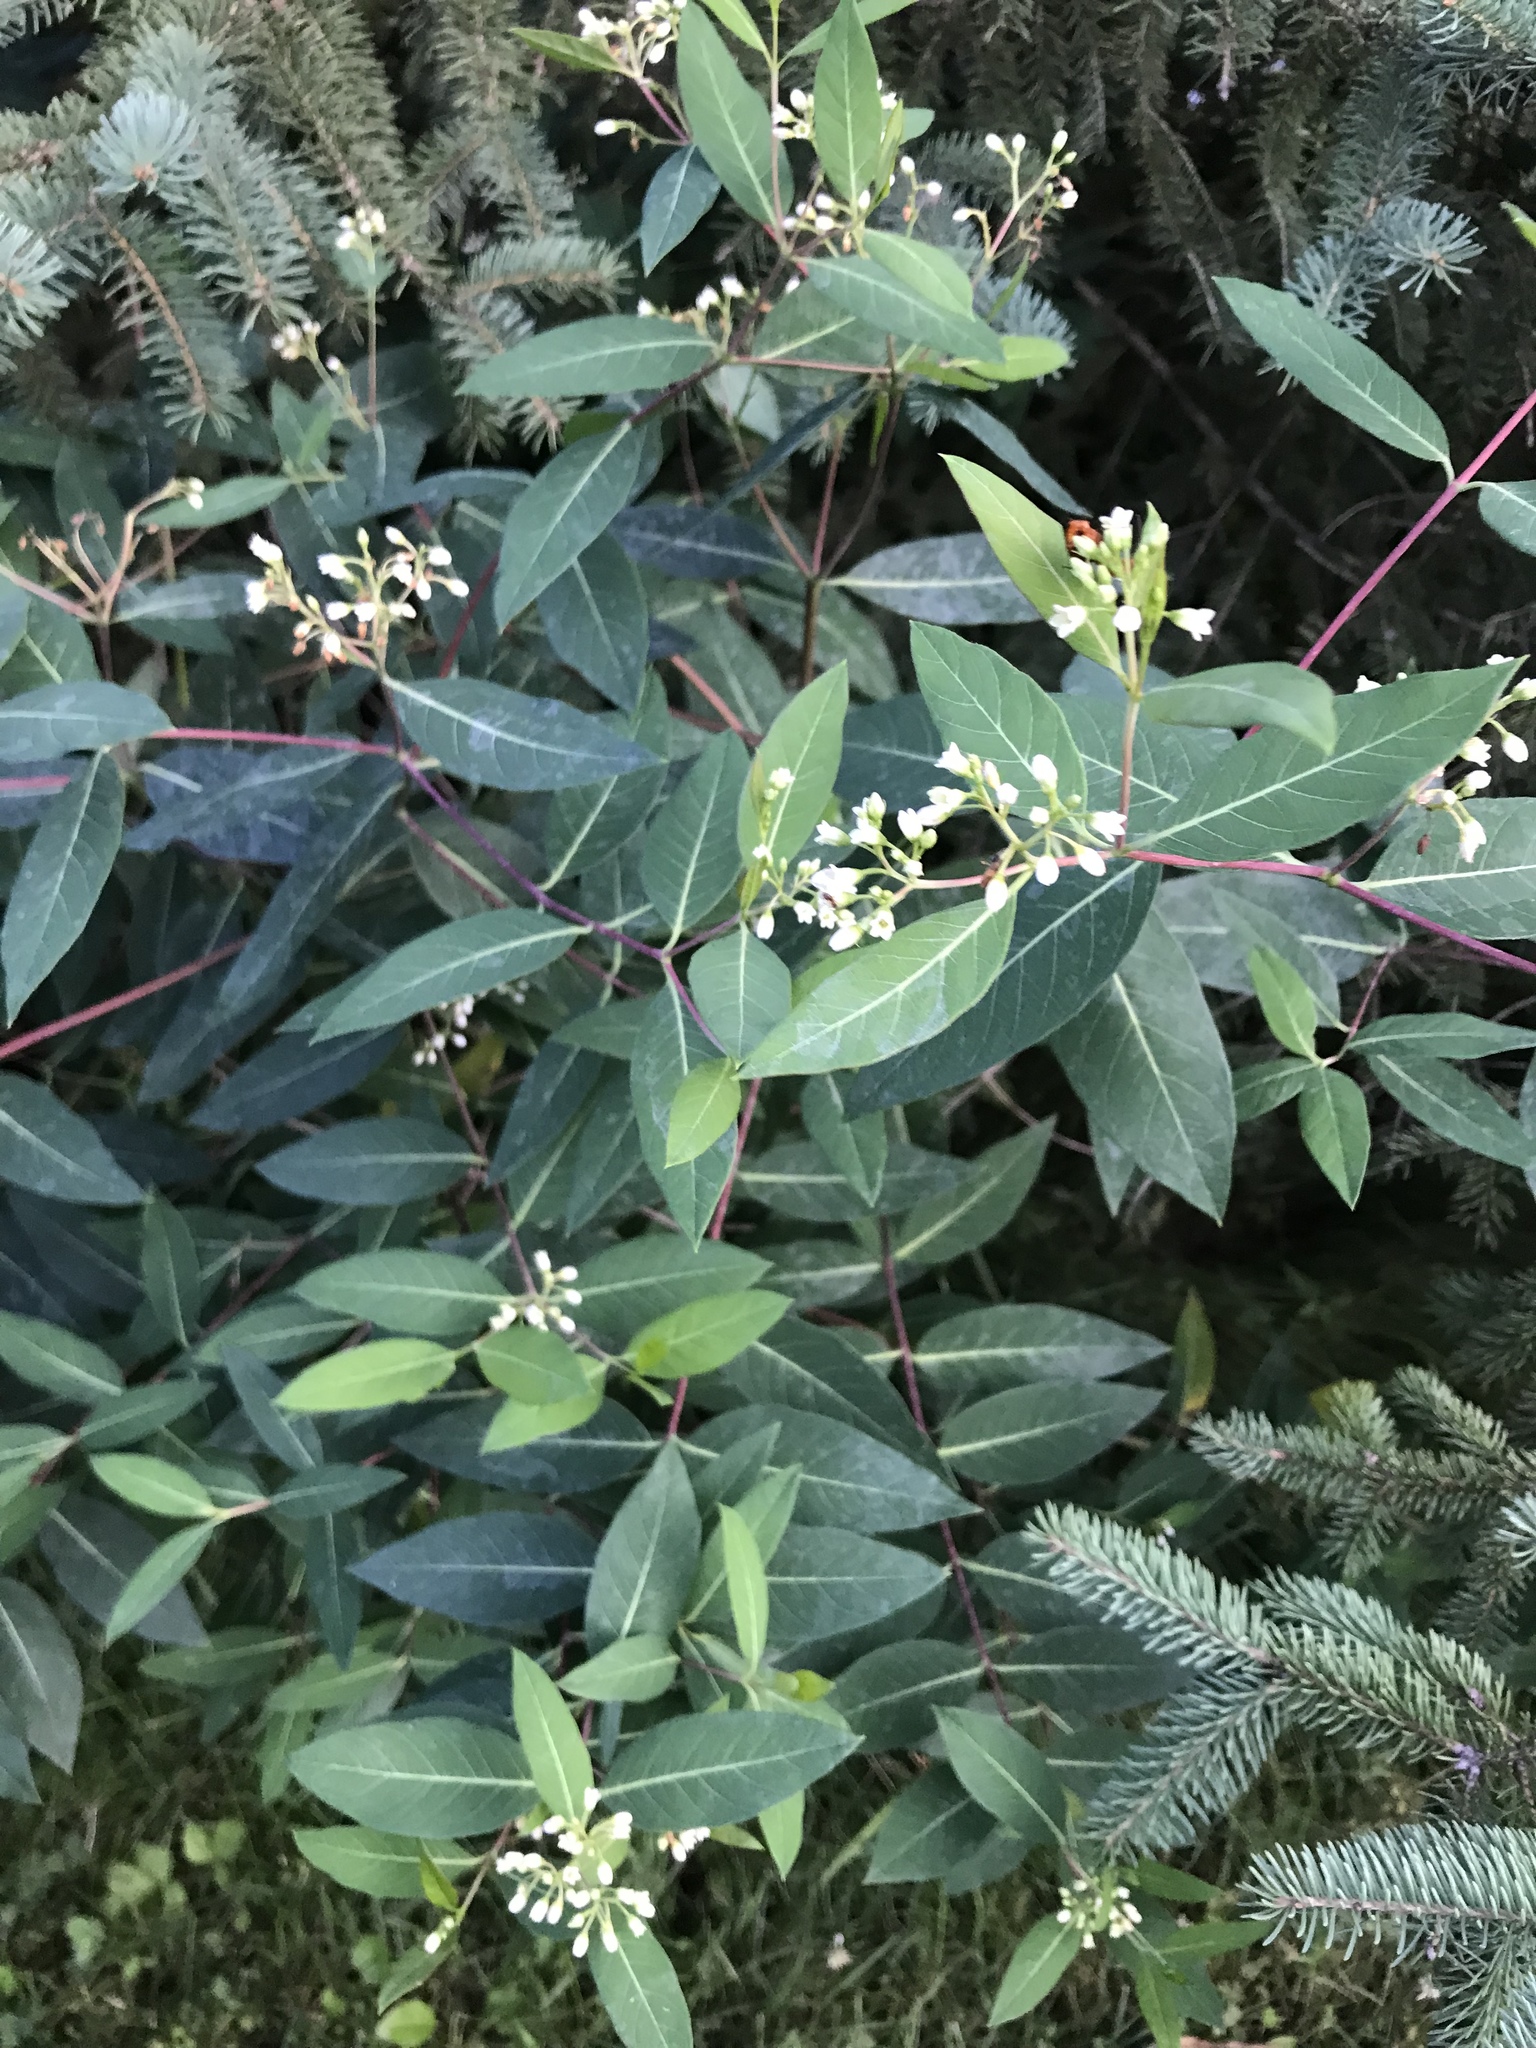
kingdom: Plantae
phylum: Tracheophyta
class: Magnoliopsida
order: Gentianales
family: Apocynaceae
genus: Apocynum
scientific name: Apocynum cannabinum
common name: Hemp dogbane
